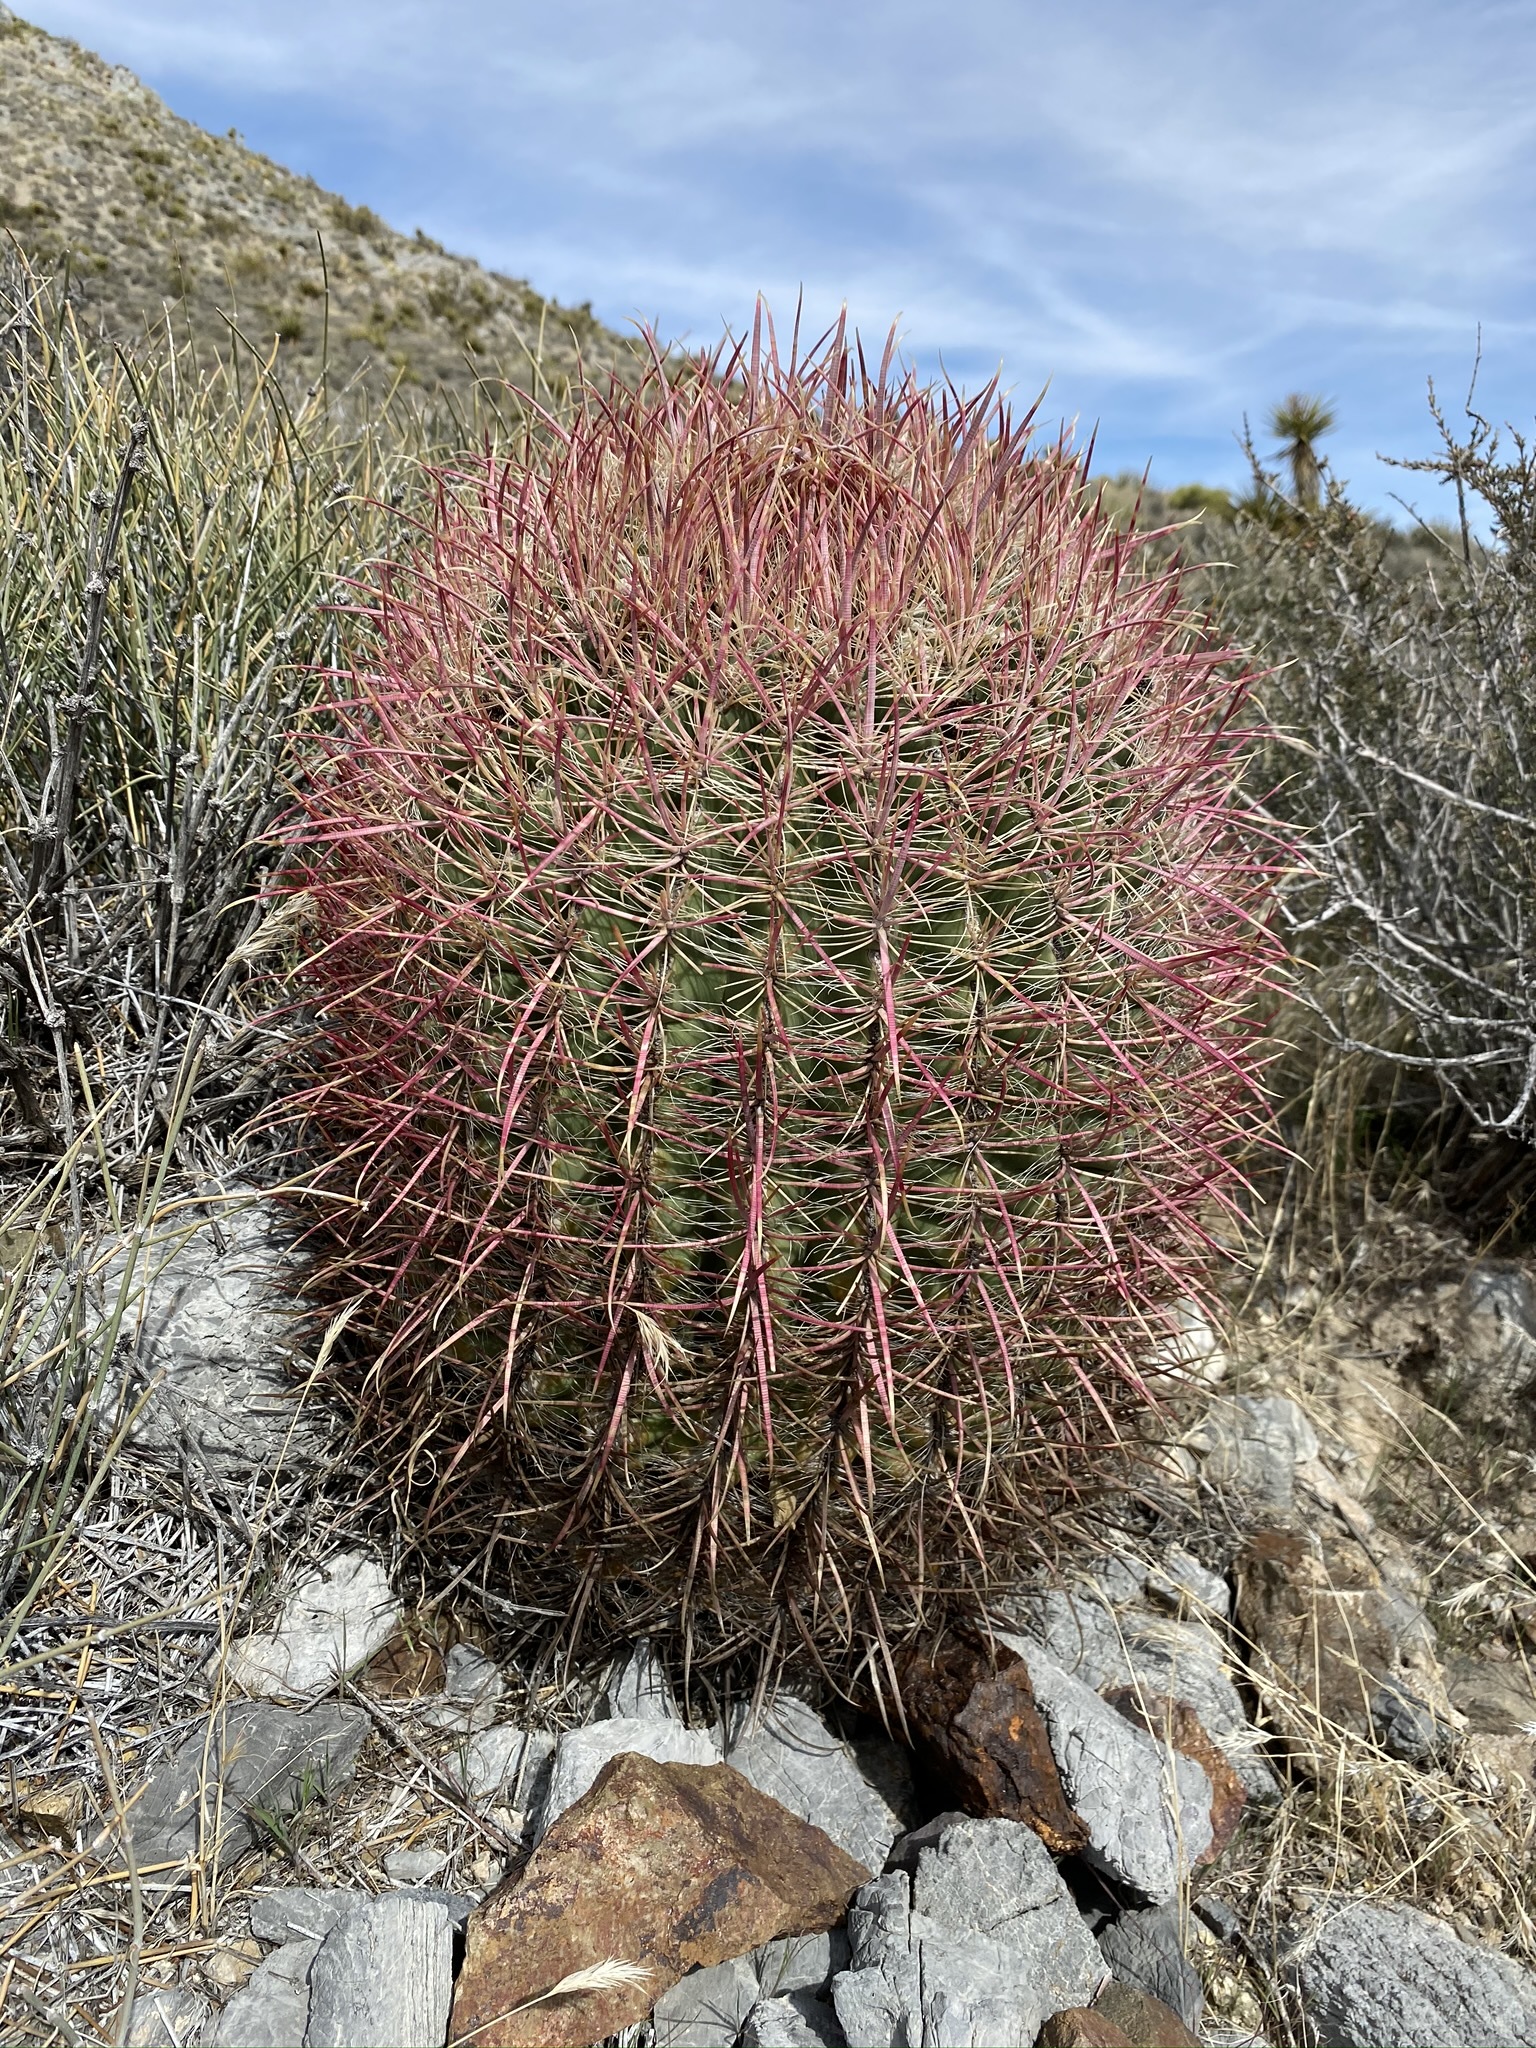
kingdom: Plantae
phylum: Tracheophyta
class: Magnoliopsida
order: Caryophyllales
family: Cactaceae
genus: Ferocactus
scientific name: Ferocactus cylindraceus
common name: California barrel cactus
